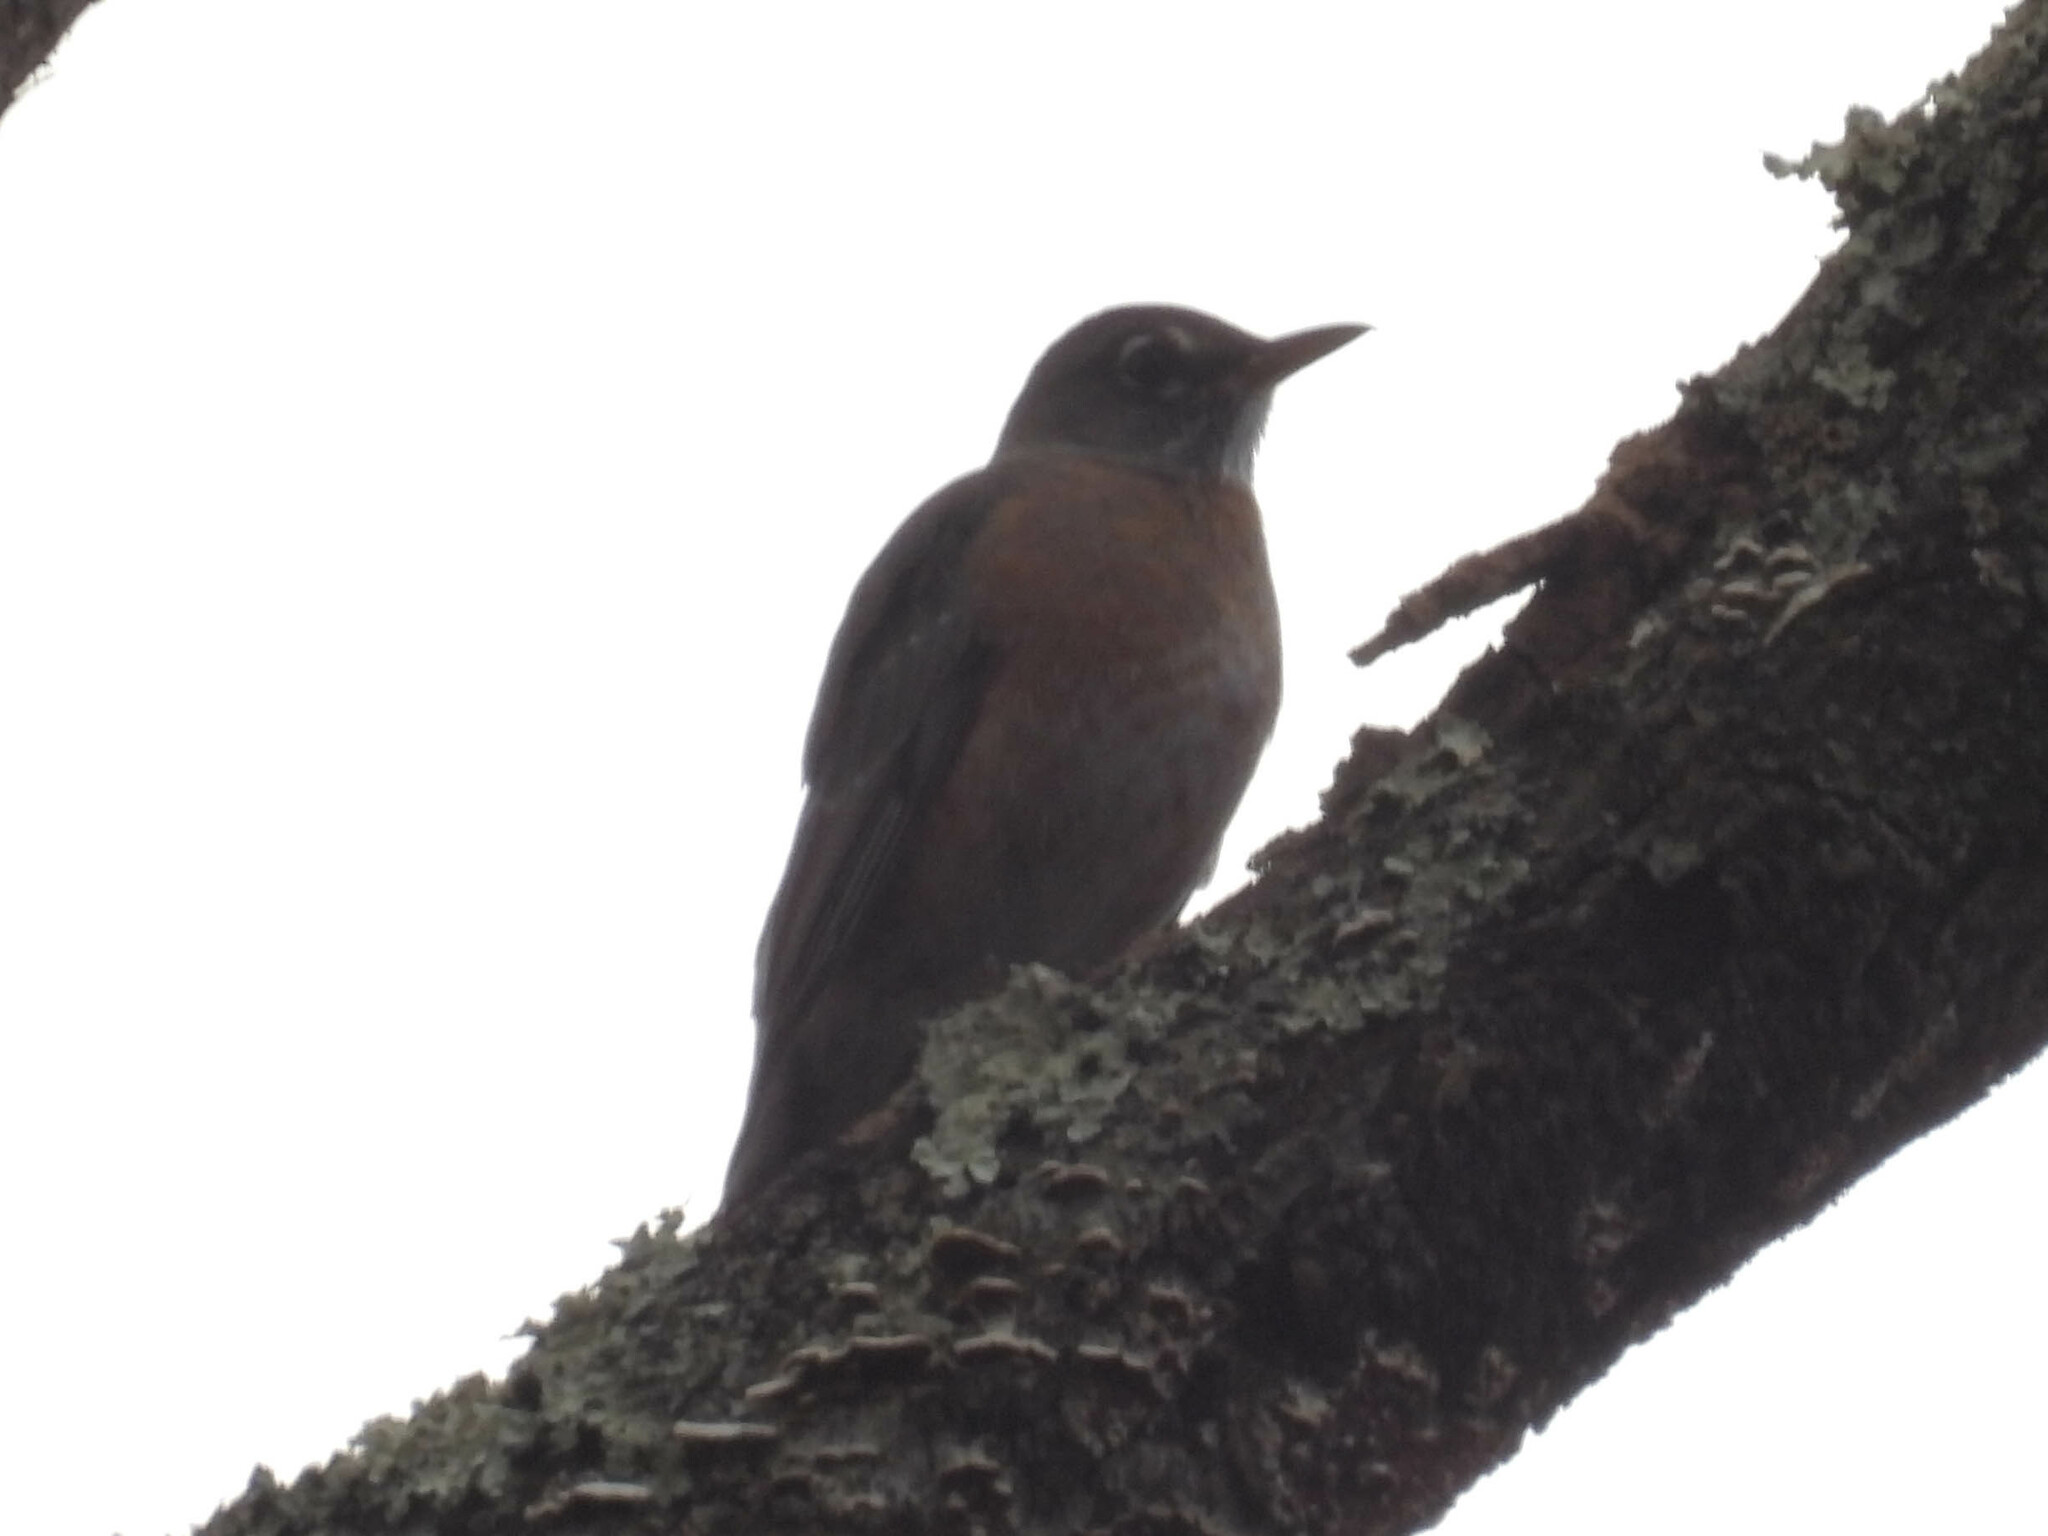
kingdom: Animalia
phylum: Chordata
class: Aves
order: Passeriformes
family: Turdidae
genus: Turdus
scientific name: Turdus migratorius
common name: American robin
